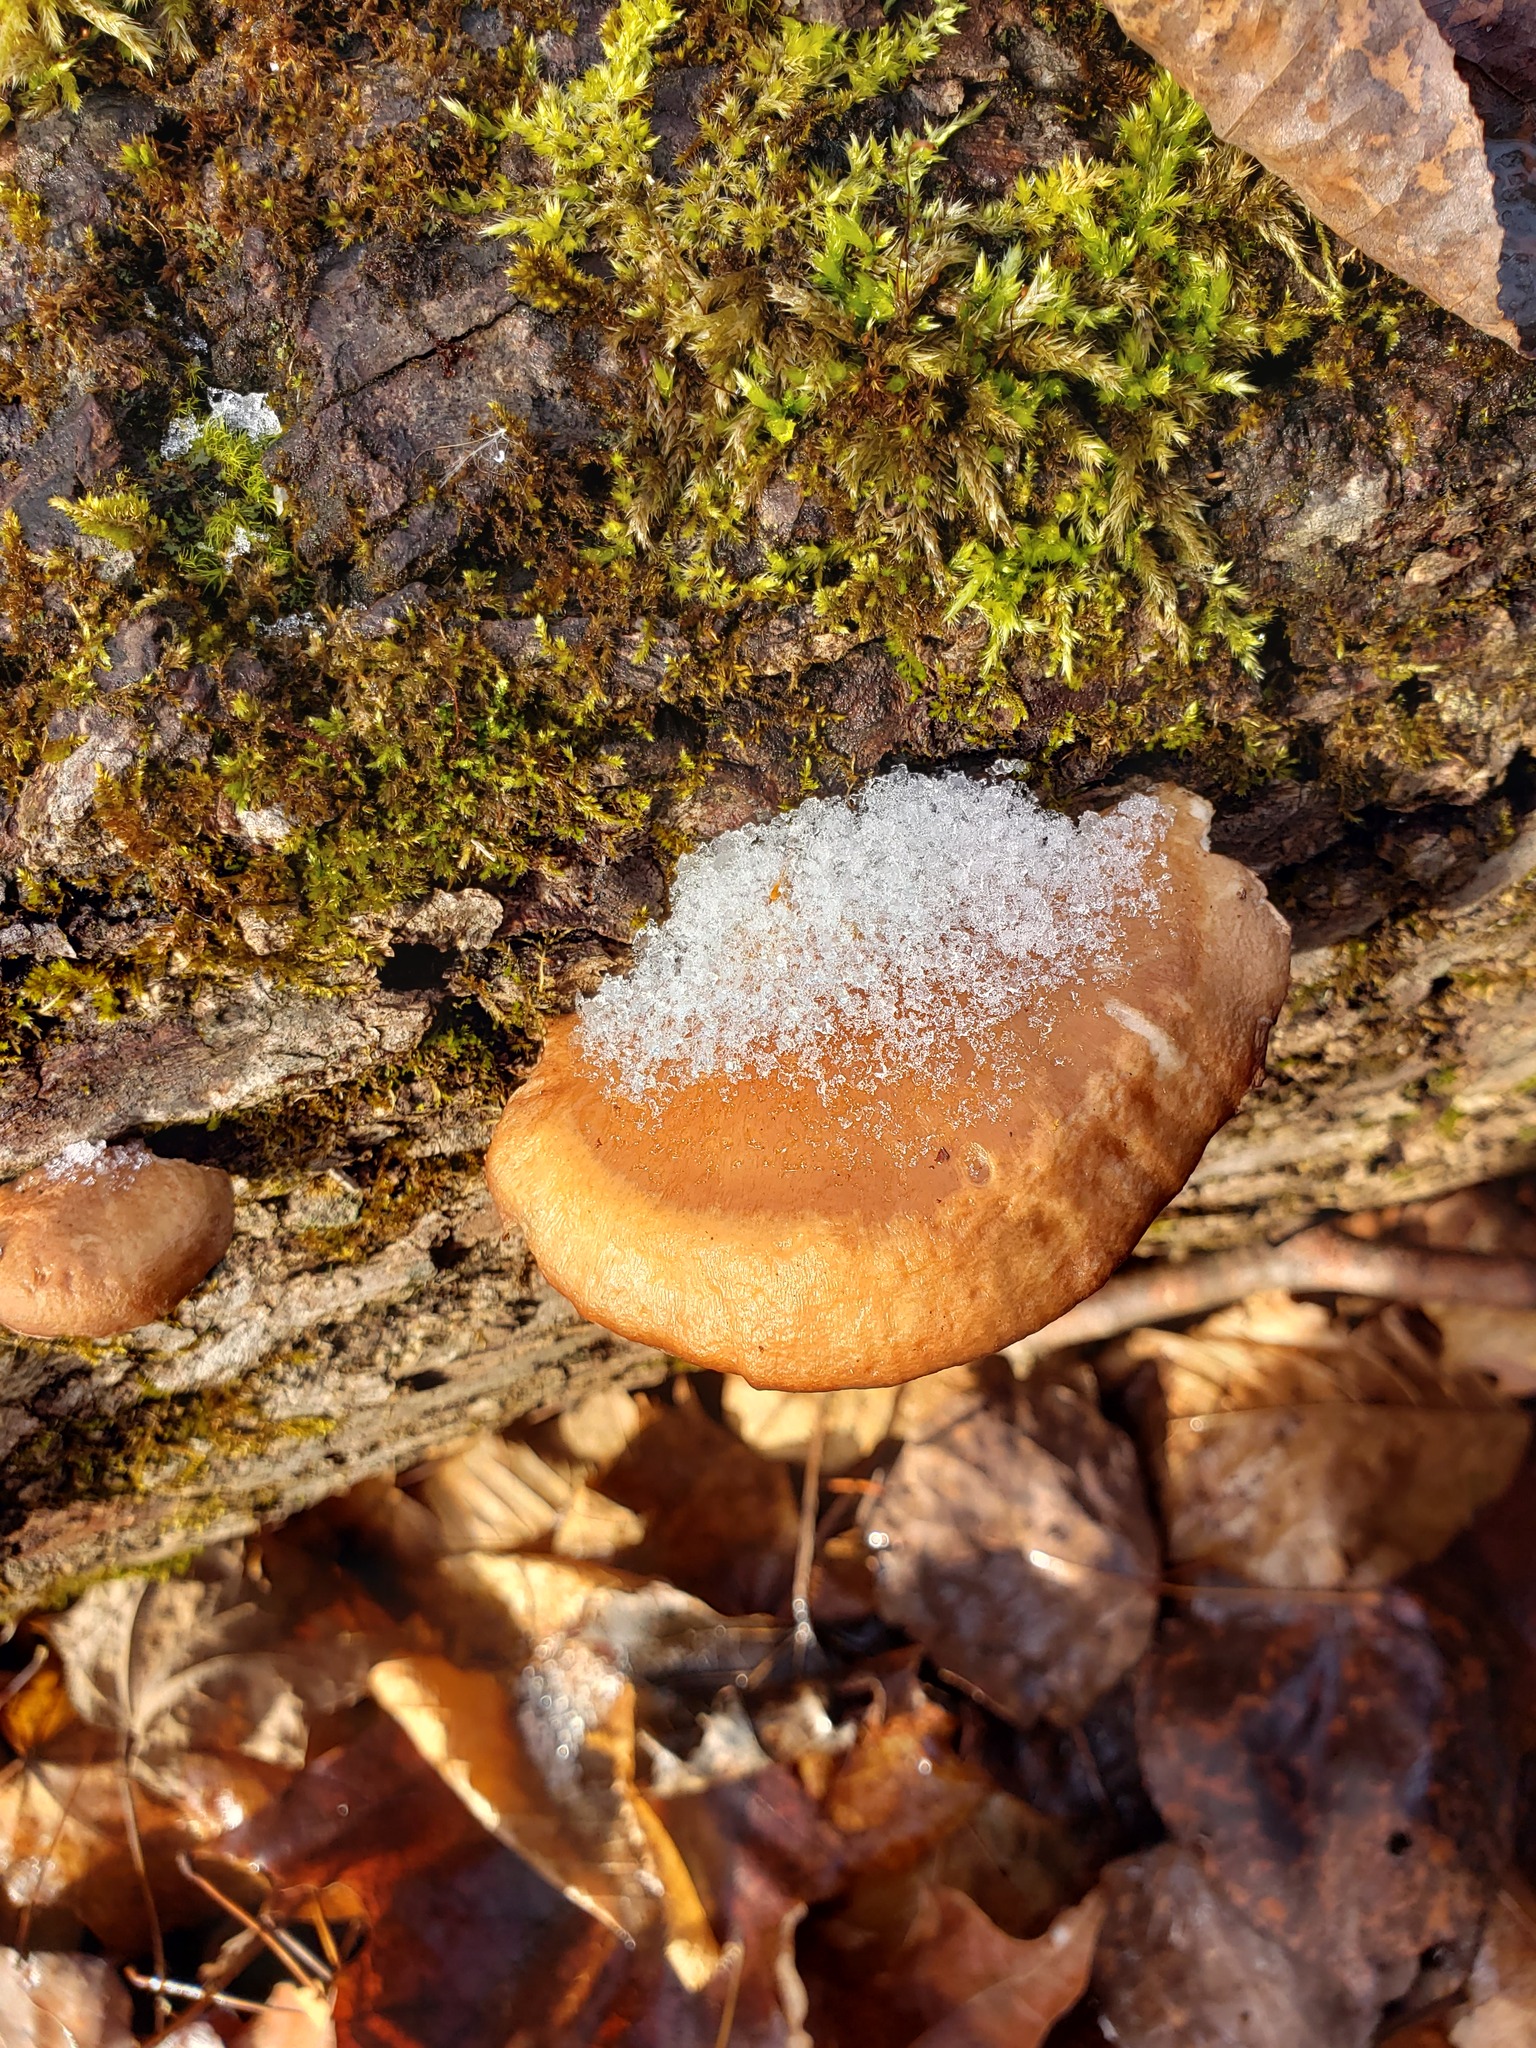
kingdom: Fungi
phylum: Basidiomycota
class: Agaricomycetes
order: Agaricales
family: Sarcomyxaceae
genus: Sarcomyxa
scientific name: Sarcomyxa serotina
